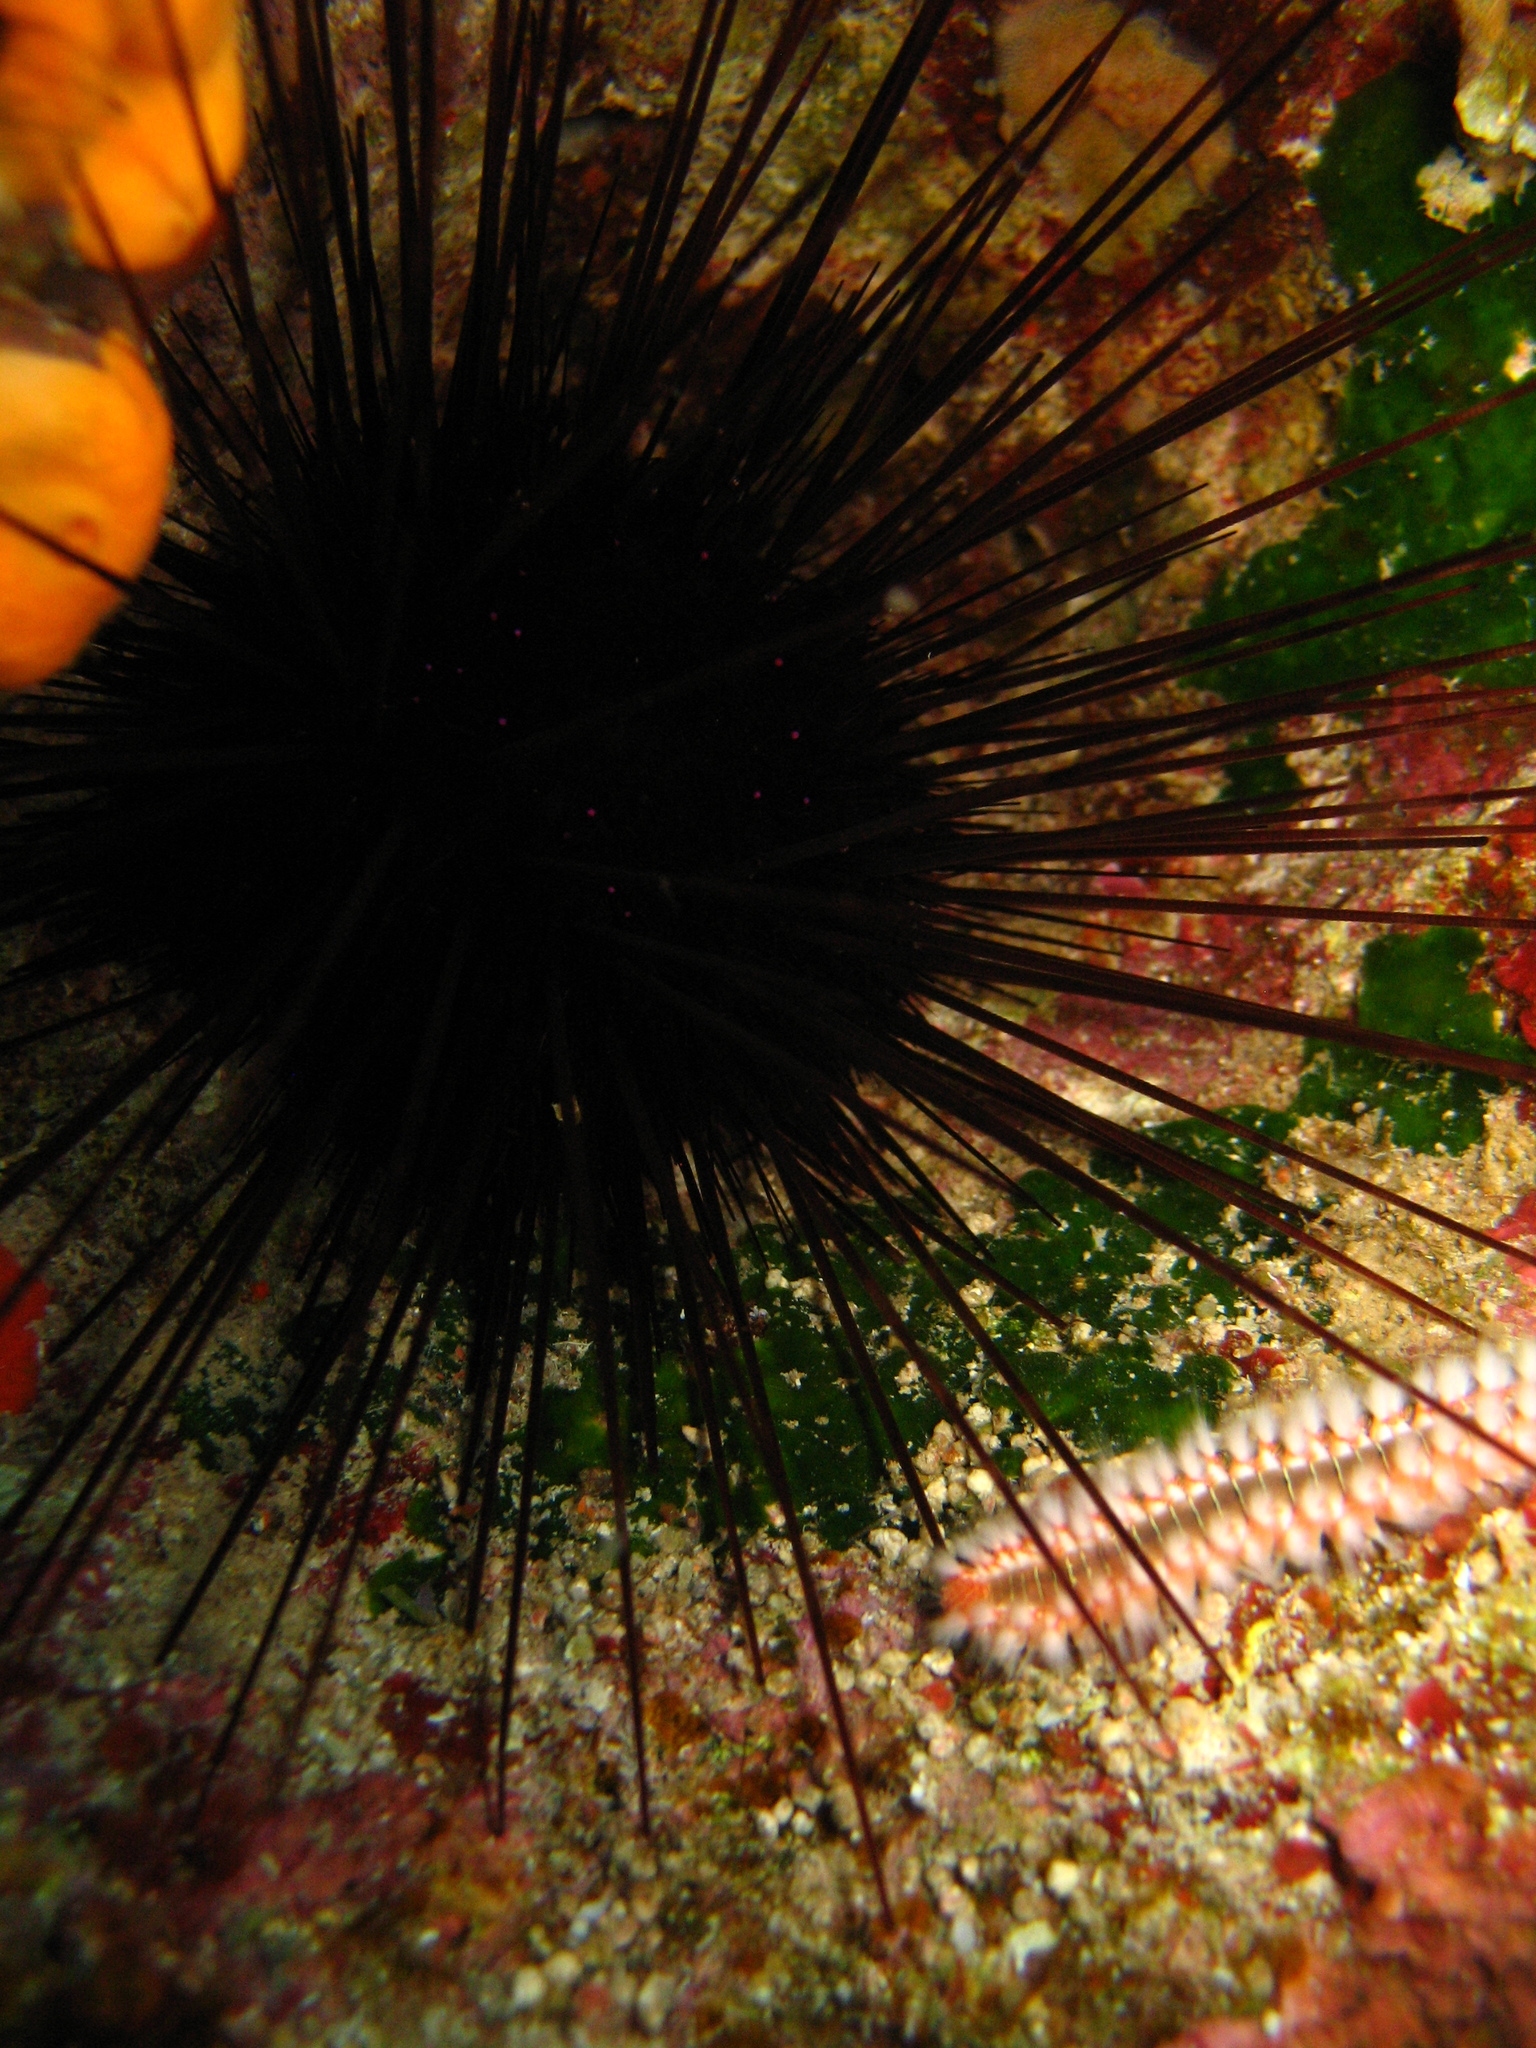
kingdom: Animalia
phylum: Echinodermata
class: Echinoidea
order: Diadematoida
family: Diadematidae
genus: Centrostephanus
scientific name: Centrostephanus longispinus
